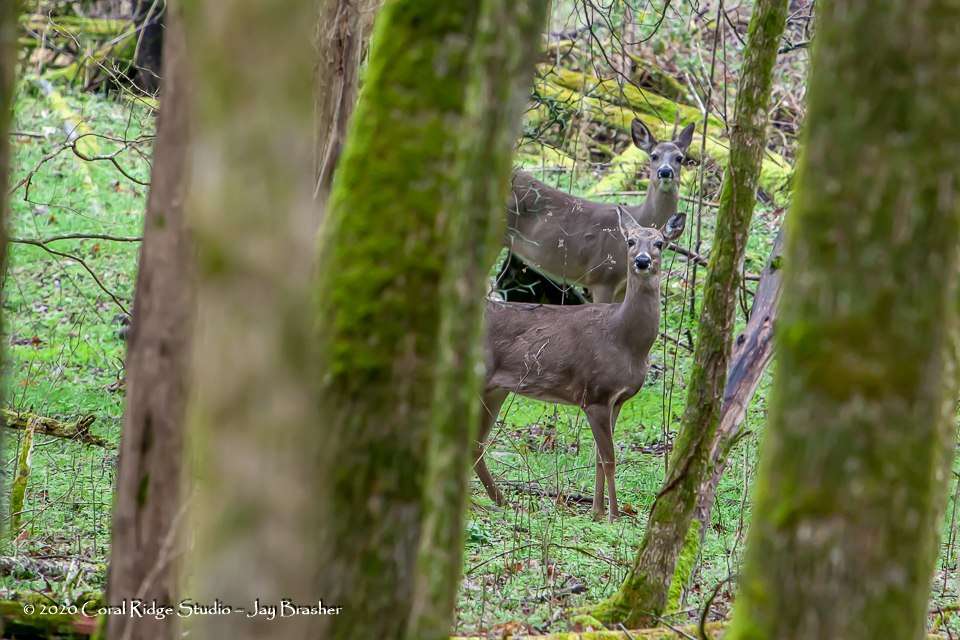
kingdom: Animalia
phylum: Chordata
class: Mammalia
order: Artiodactyla
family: Cervidae
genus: Odocoileus
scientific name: Odocoileus virginianus
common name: White-tailed deer
